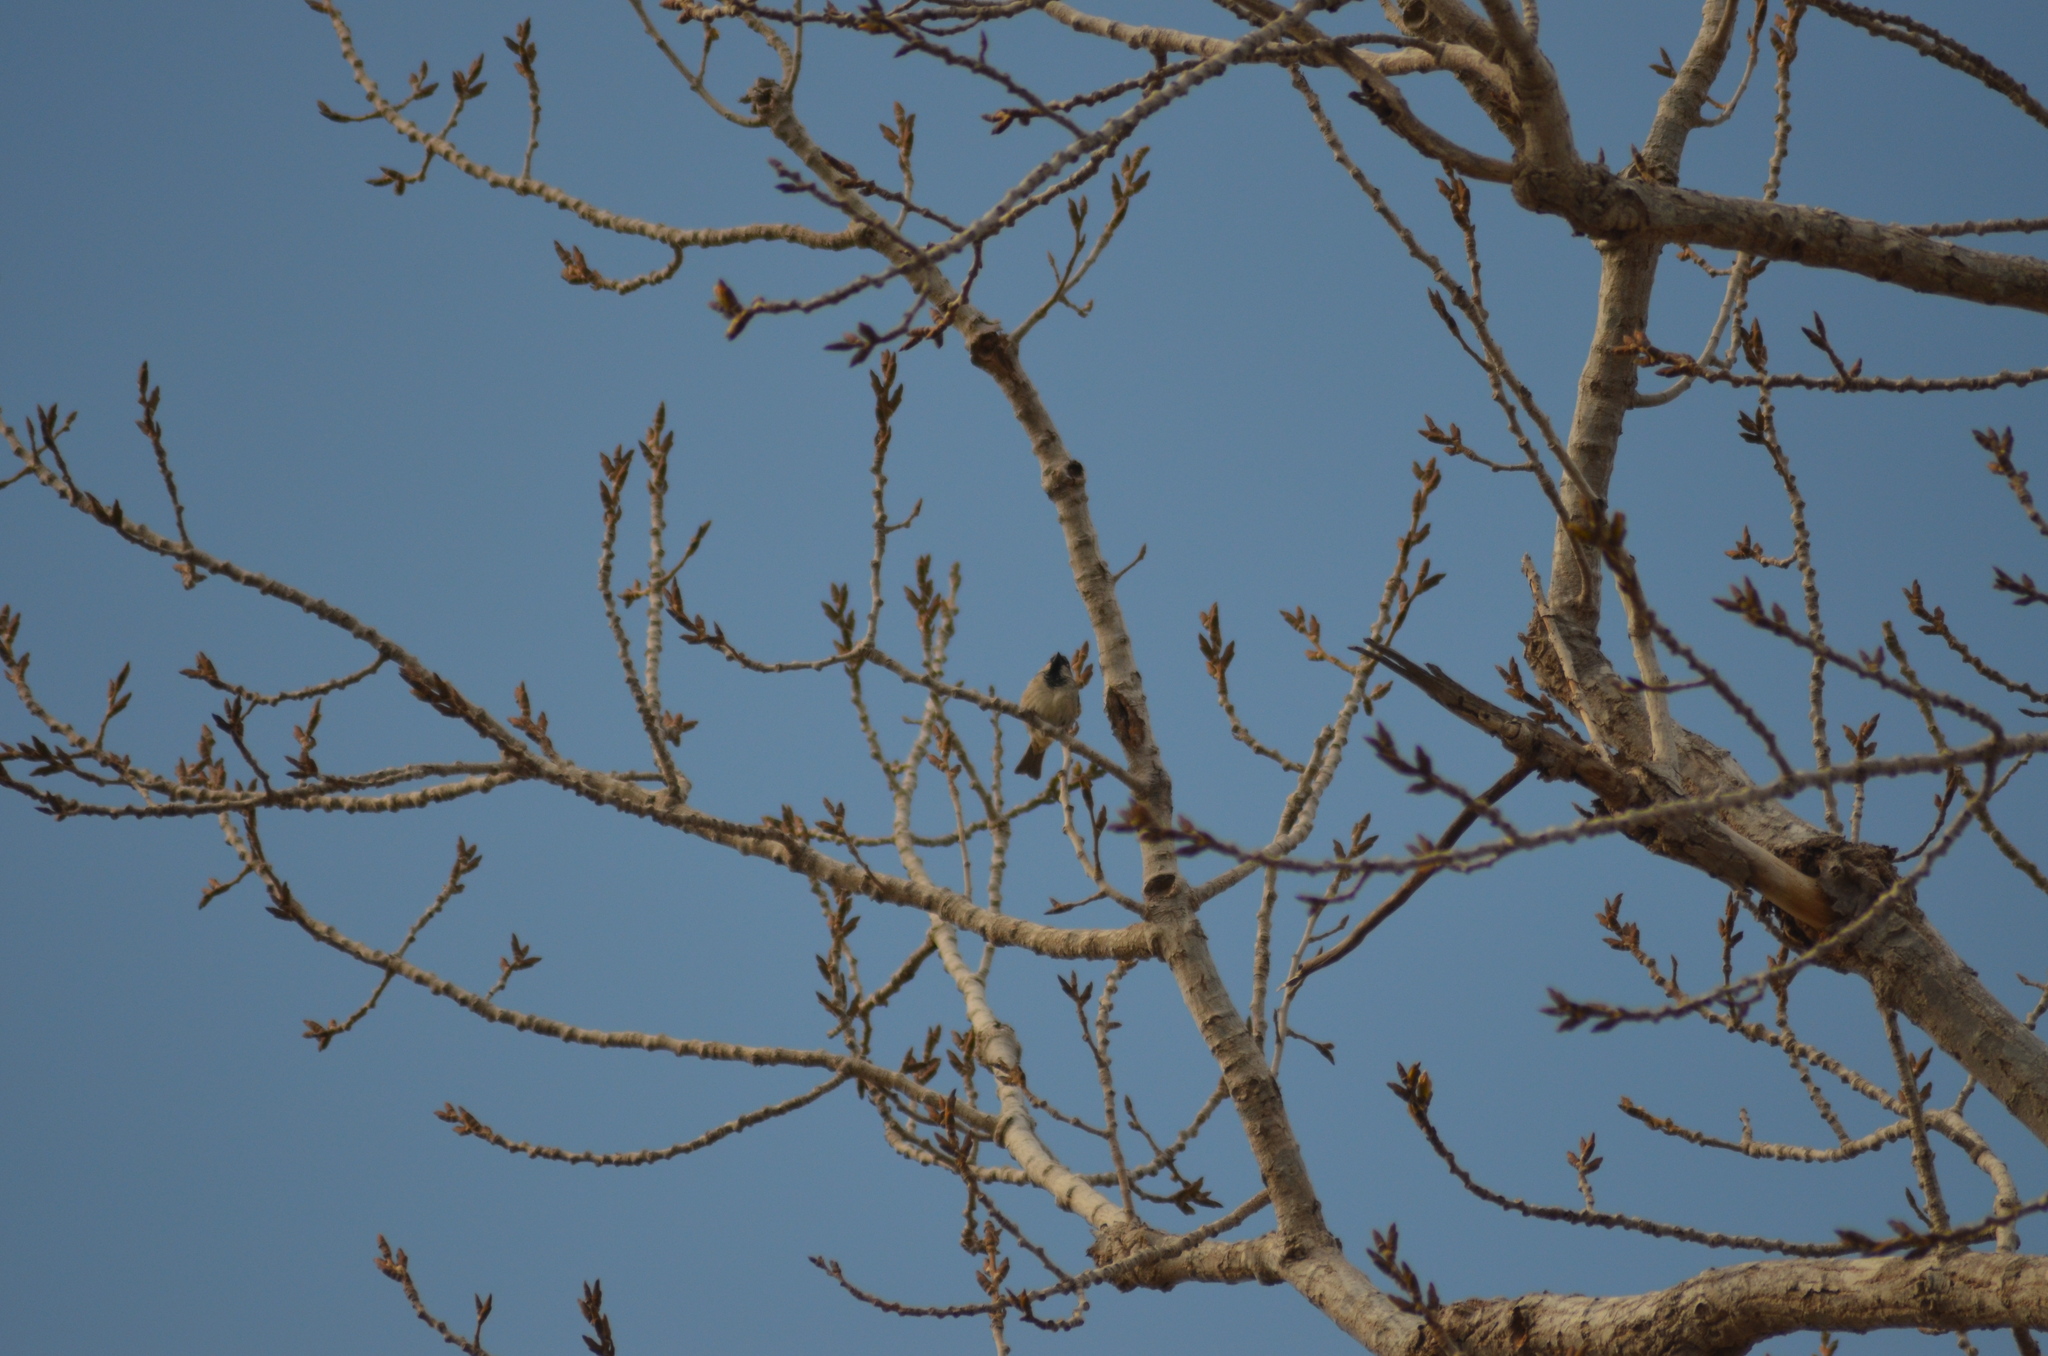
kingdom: Animalia
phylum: Chordata
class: Aves
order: Passeriformes
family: Passeridae
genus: Passer
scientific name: Passer domesticus
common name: House sparrow
